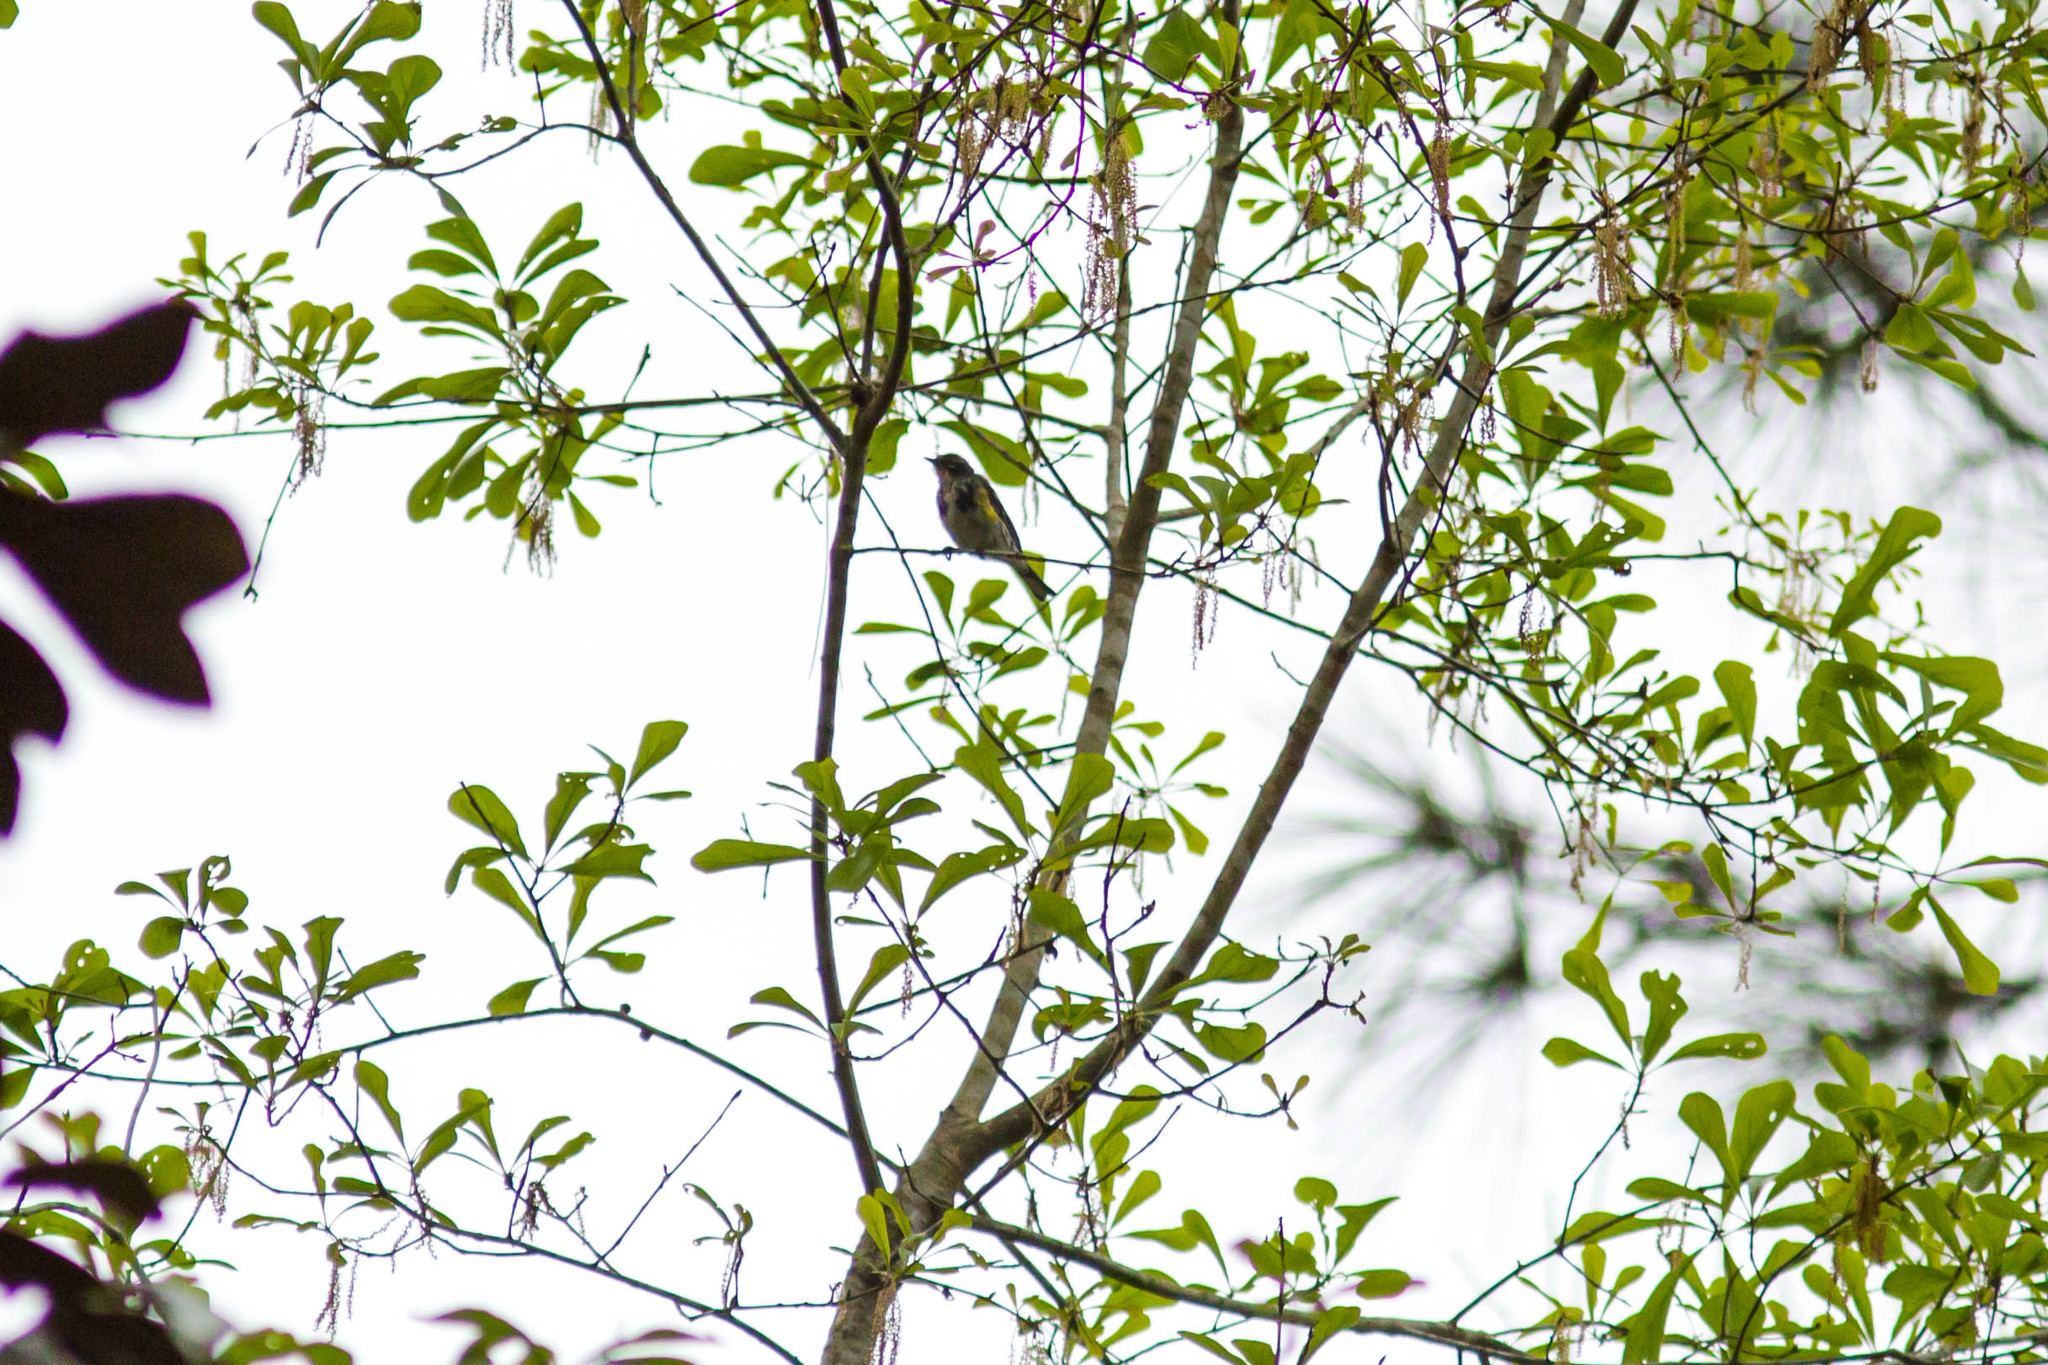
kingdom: Animalia
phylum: Chordata
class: Aves
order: Passeriformes
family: Parulidae
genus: Setophaga
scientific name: Setophaga coronata
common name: Myrtle warbler
